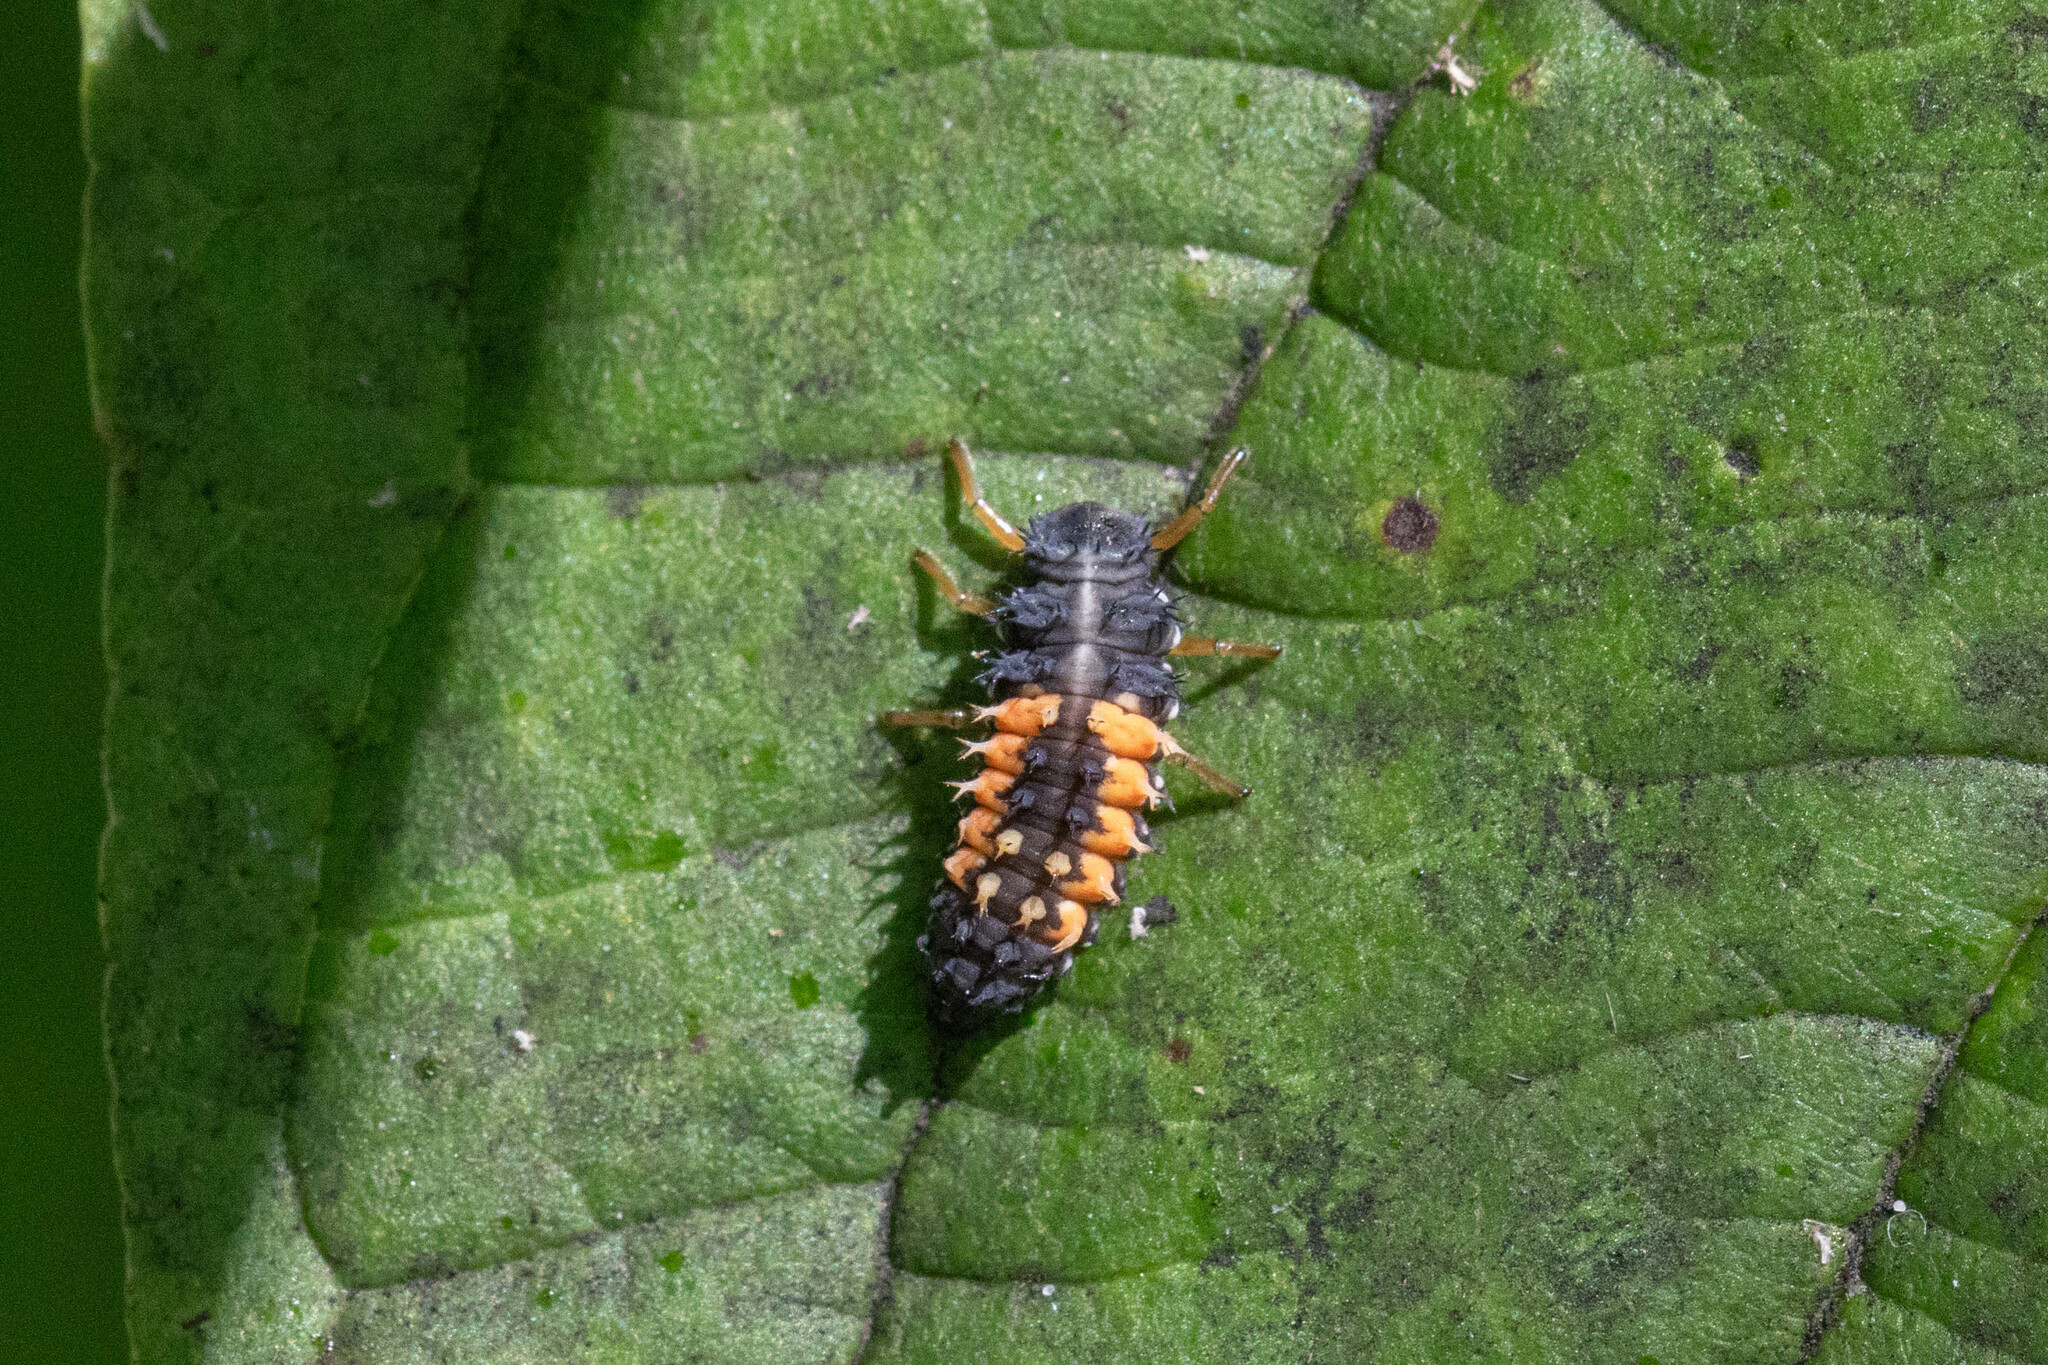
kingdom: Animalia
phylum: Arthropoda
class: Insecta
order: Coleoptera
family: Coccinellidae
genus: Harmonia
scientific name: Harmonia axyridis
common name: Harlequin ladybird
